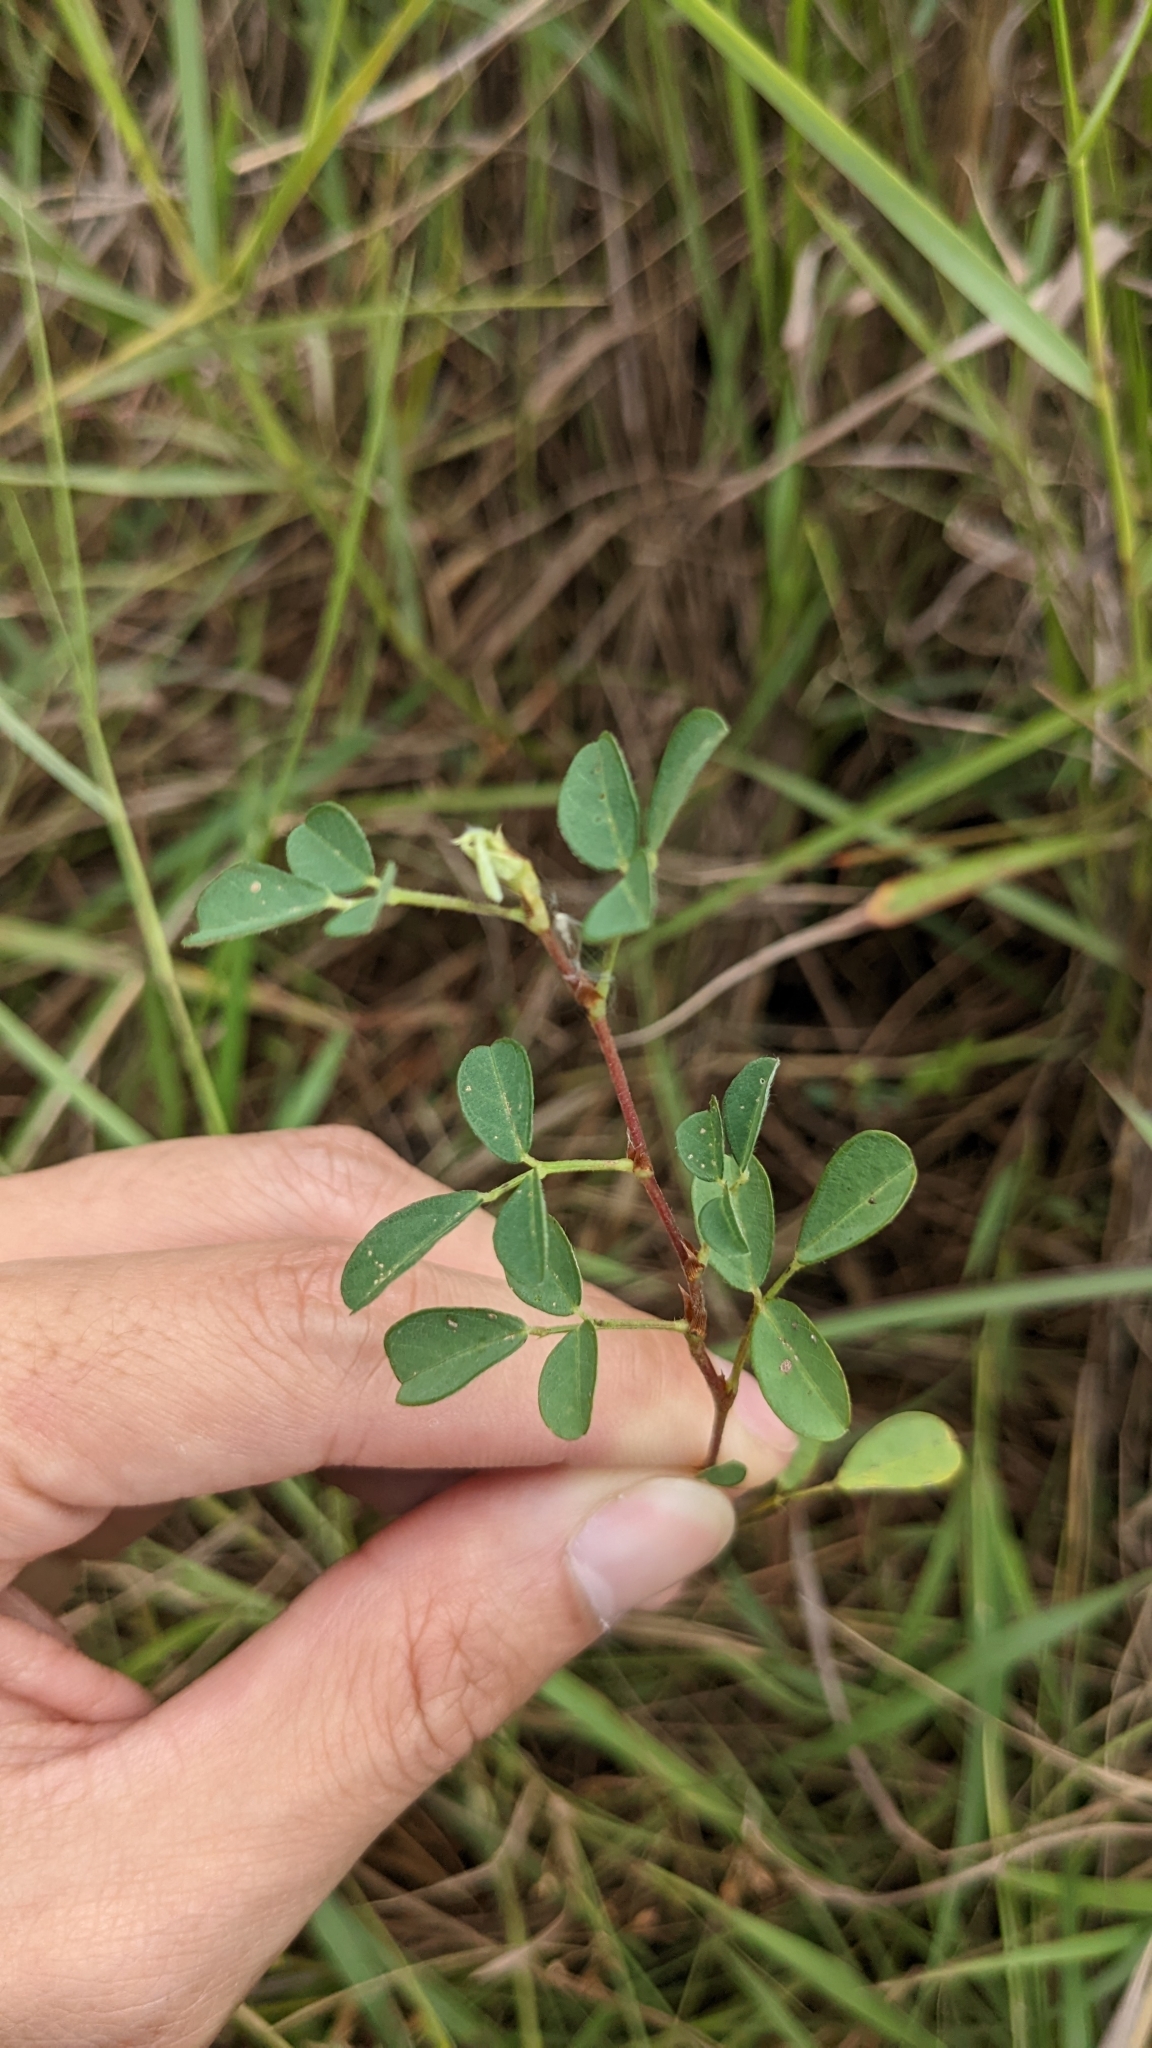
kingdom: Plantae
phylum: Tracheophyta
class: Magnoliopsida
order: Fabales
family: Fabaceae
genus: Grona
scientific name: Grona heterophylla
